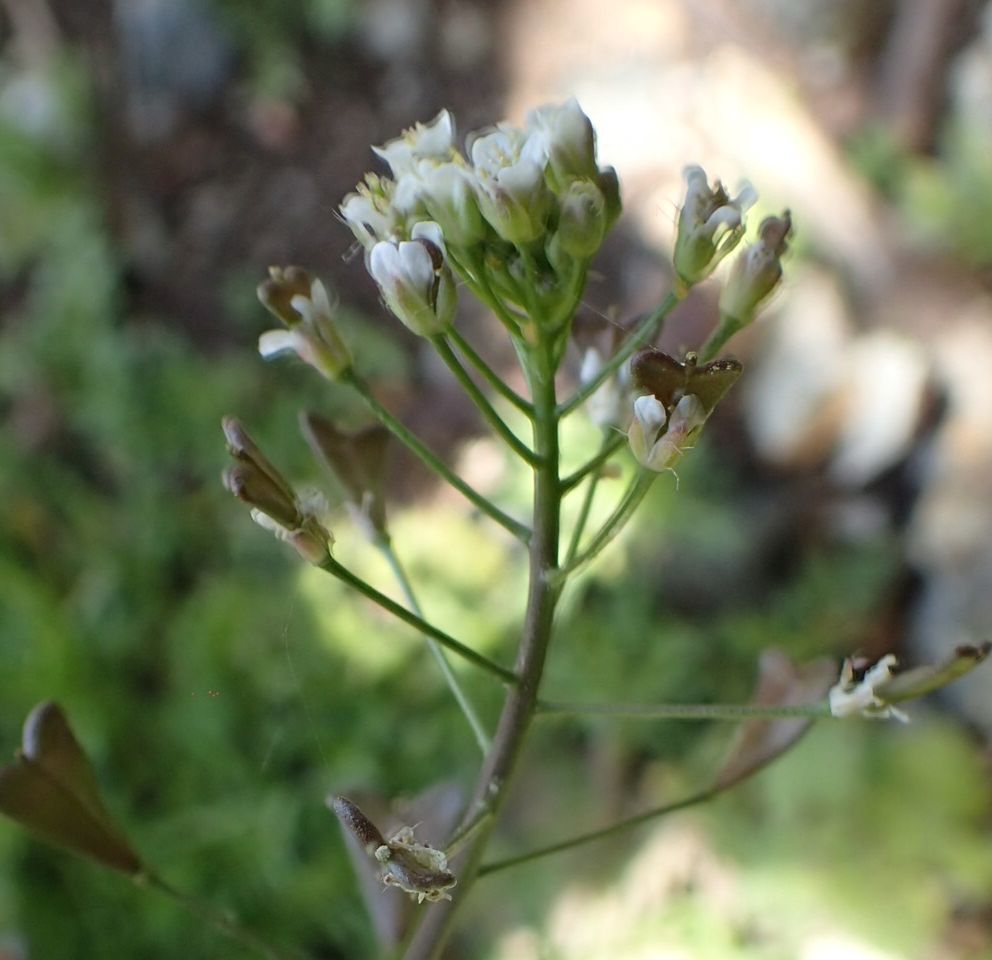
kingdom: Plantae
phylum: Tracheophyta
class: Magnoliopsida
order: Brassicales
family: Brassicaceae
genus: Capsella
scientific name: Capsella bursa-pastoris
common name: Shepherd's purse
